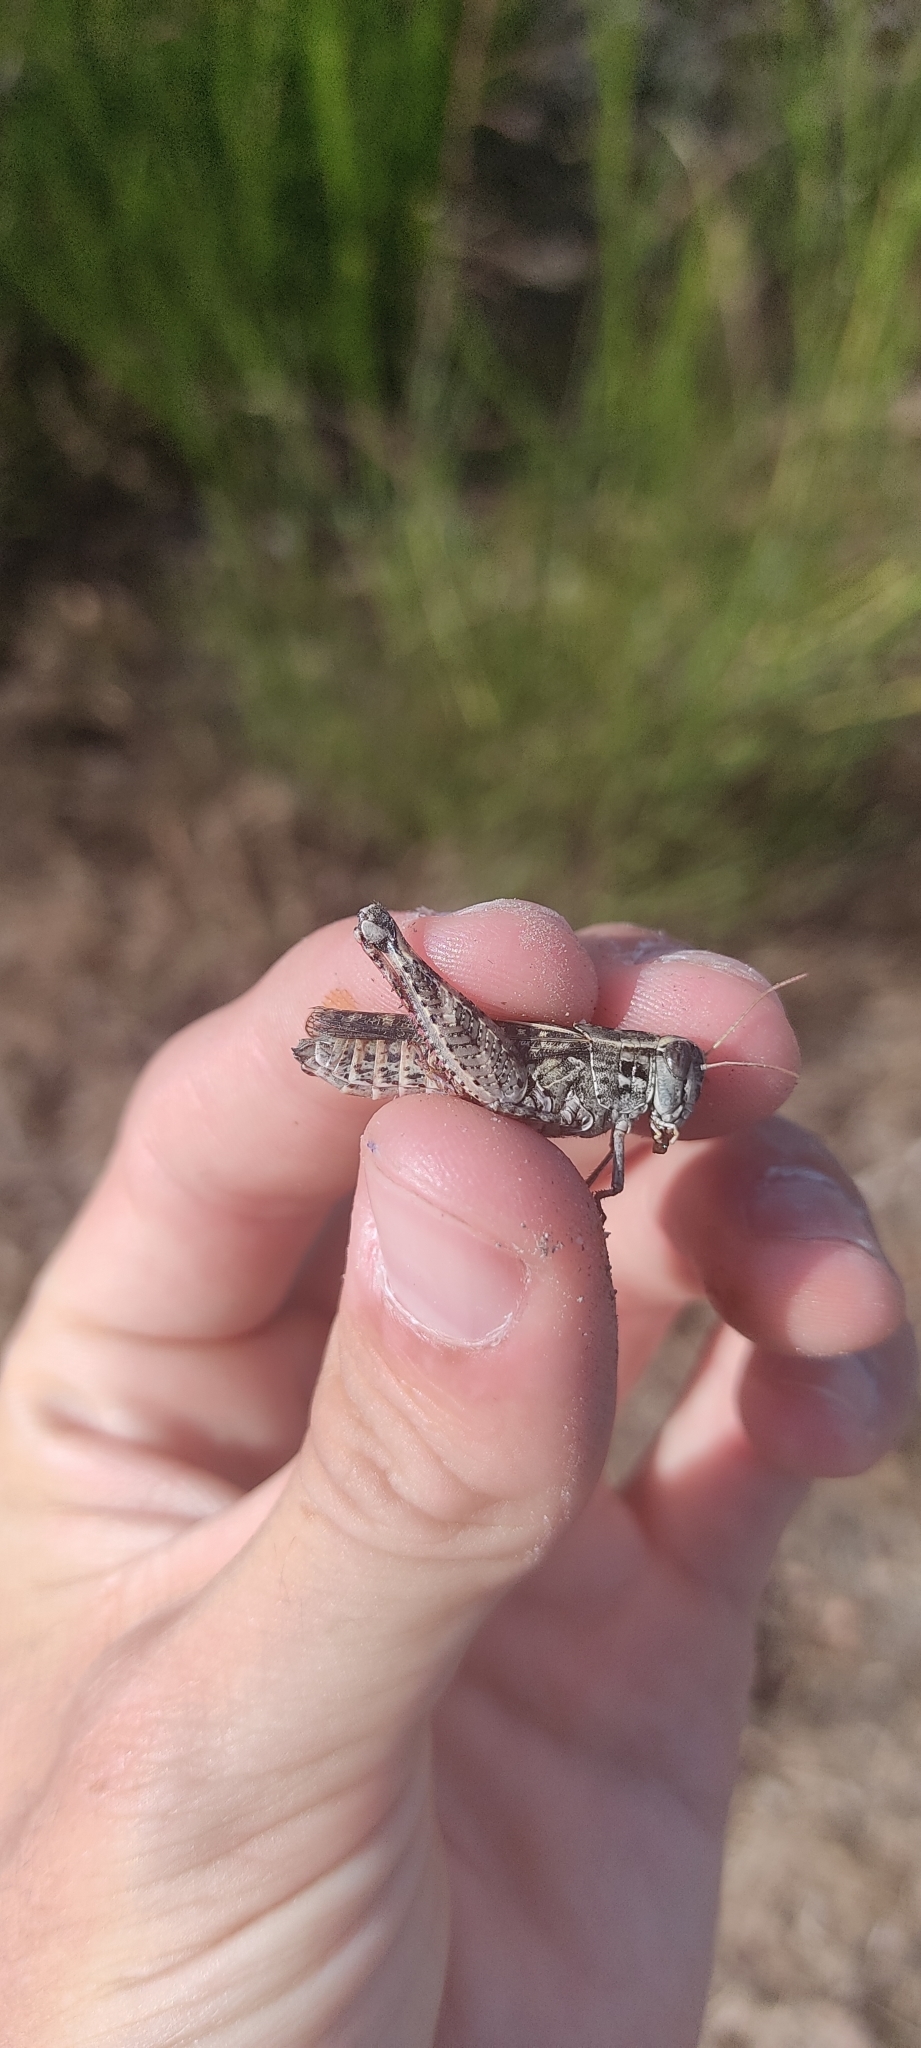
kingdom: Animalia
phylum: Arthropoda
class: Insecta
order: Orthoptera
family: Acrididae
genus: Calliptamus
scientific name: Calliptamus italicus
